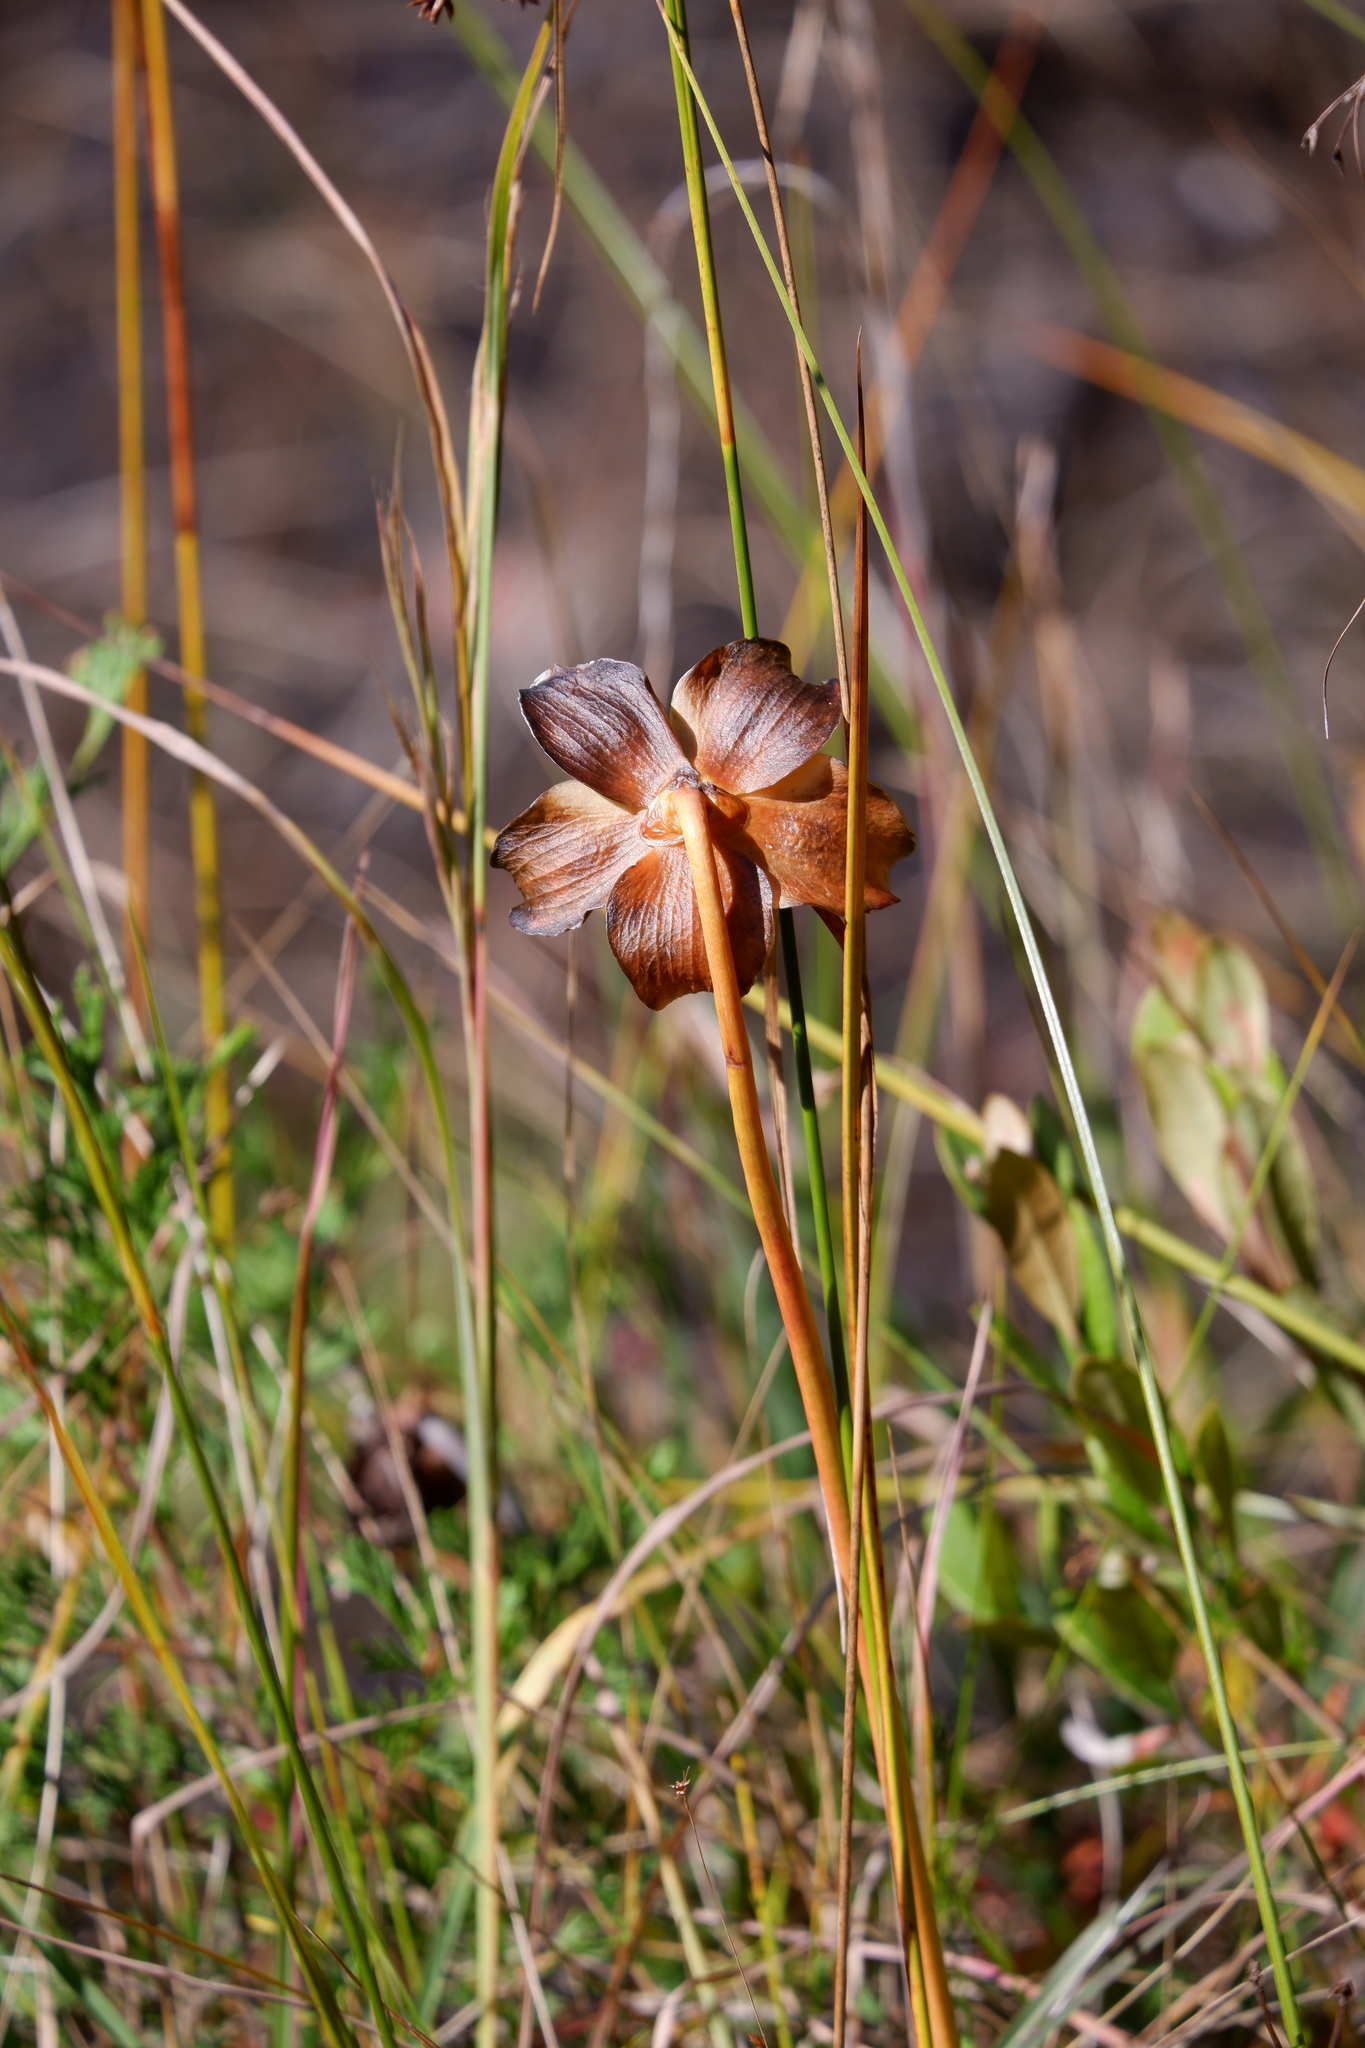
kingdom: Plantae
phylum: Tracheophyta
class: Magnoliopsida
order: Ericales
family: Sarraceniaceae
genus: Sarracenia
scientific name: Sarracenia purpurea
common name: Pitcherplant
